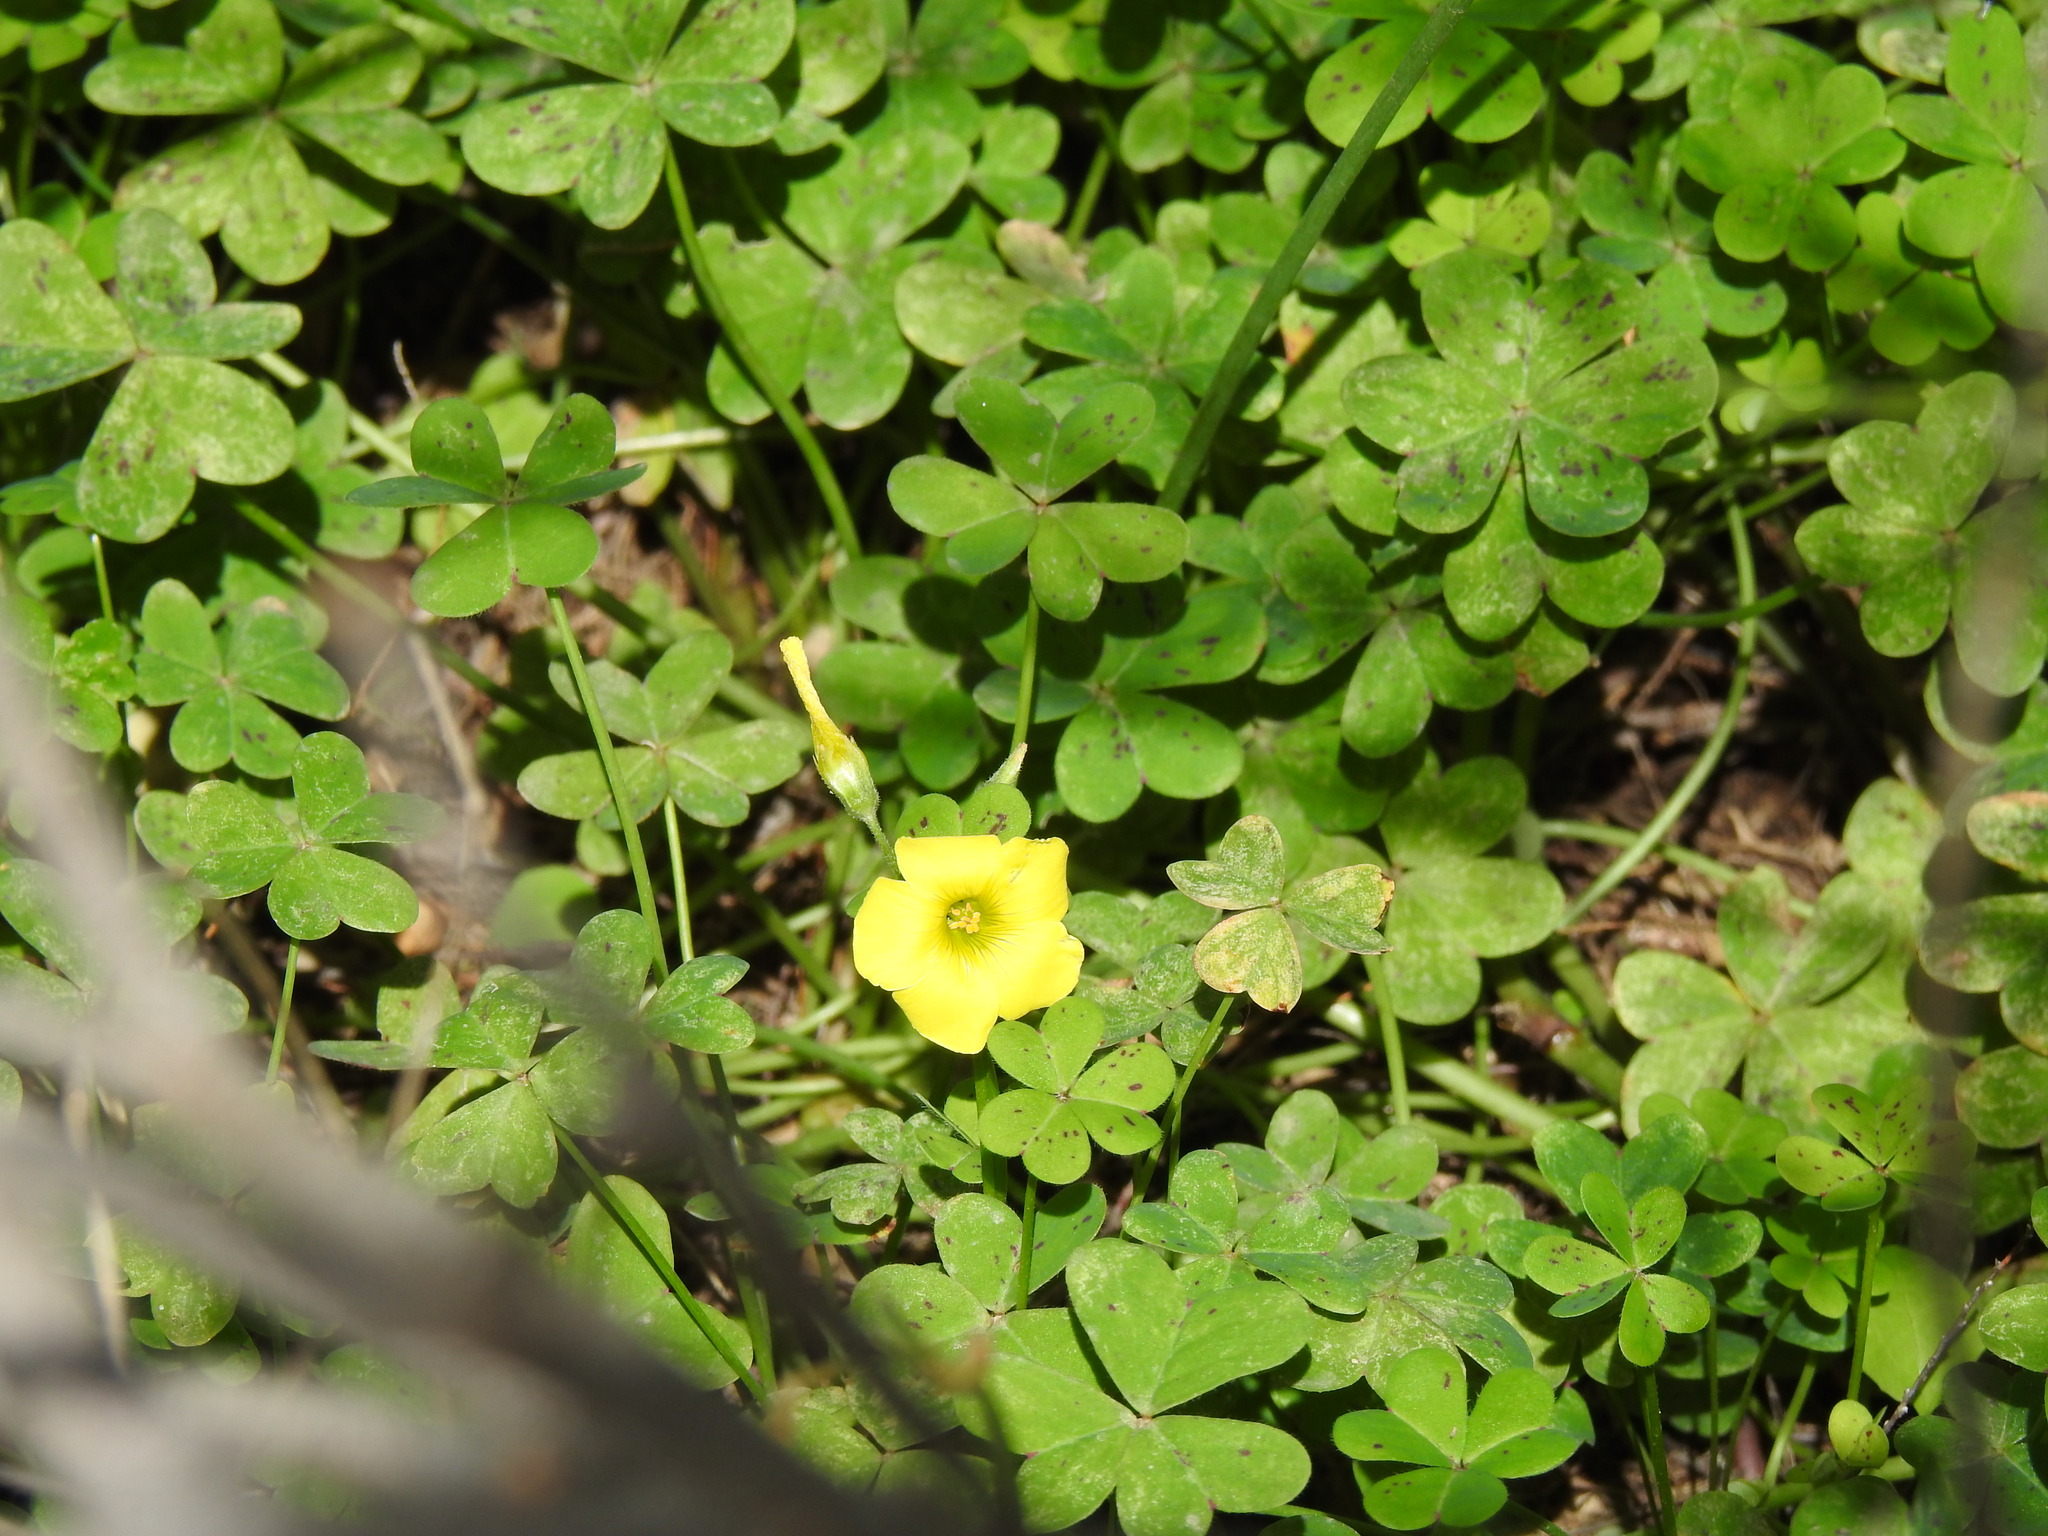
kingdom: Plantae
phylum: Tracheophyta
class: Magnoliopsida
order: Oxalidales
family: Oxalidaceae
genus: Oxalis
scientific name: Oxalis pes-caprae
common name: Bermuda-buttercup
